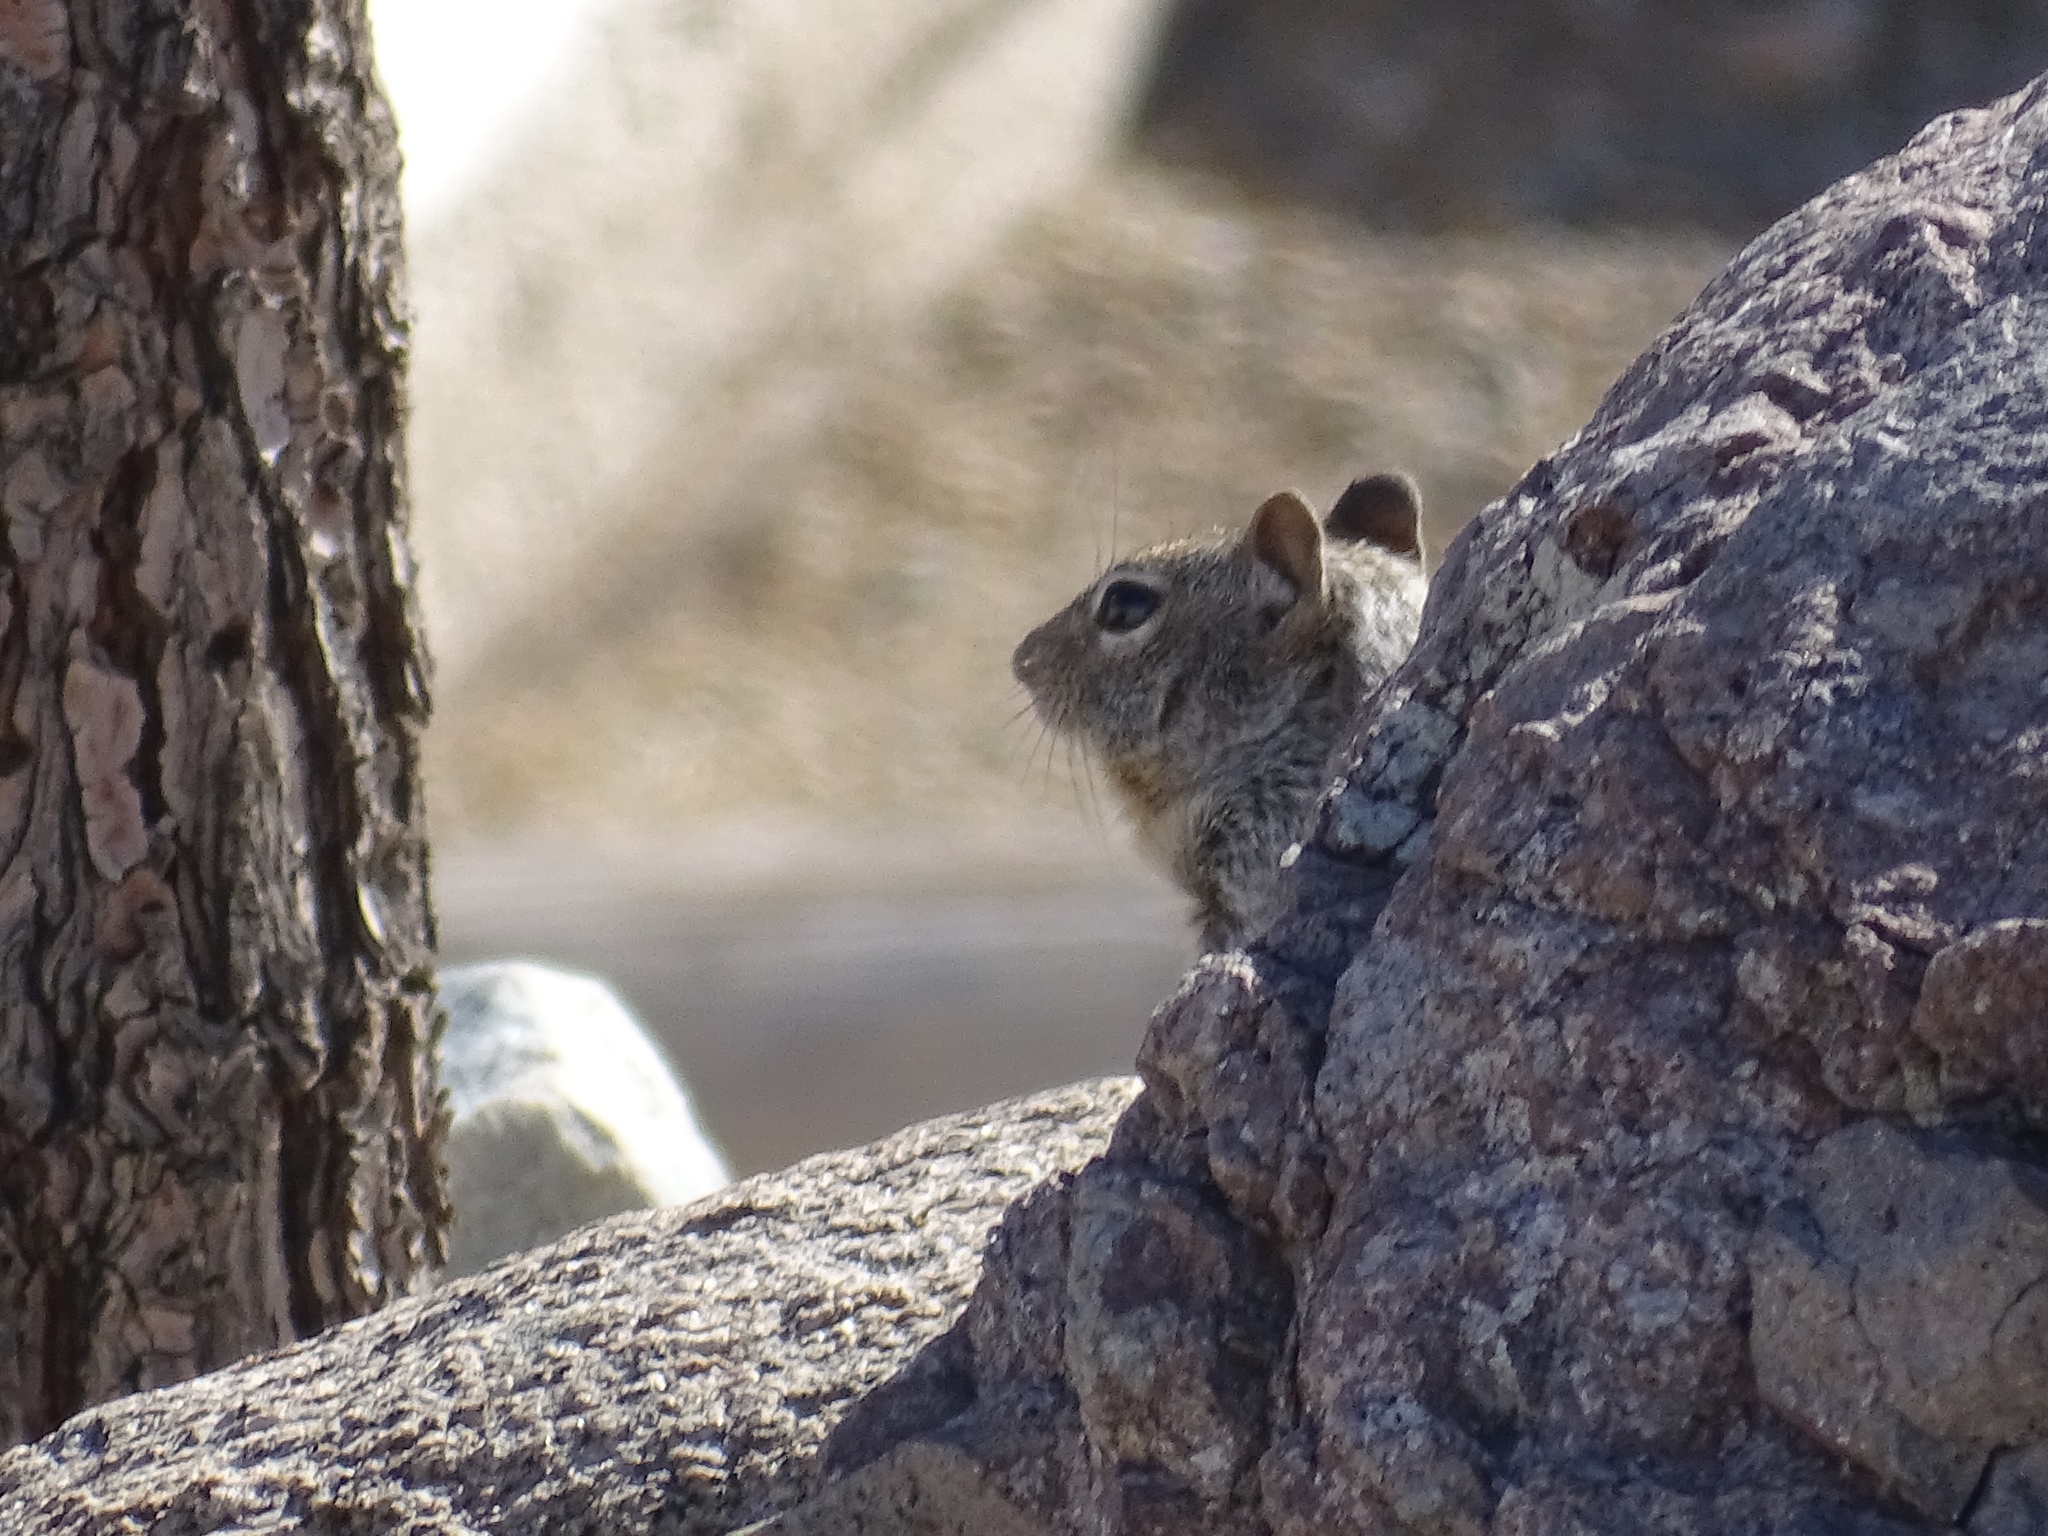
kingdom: Animalia
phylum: Chordata
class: Mammalia
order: Rodentia
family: Sciuridae
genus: Otospermophilus
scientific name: Otospermophilus variegatus
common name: Rock squirrel
